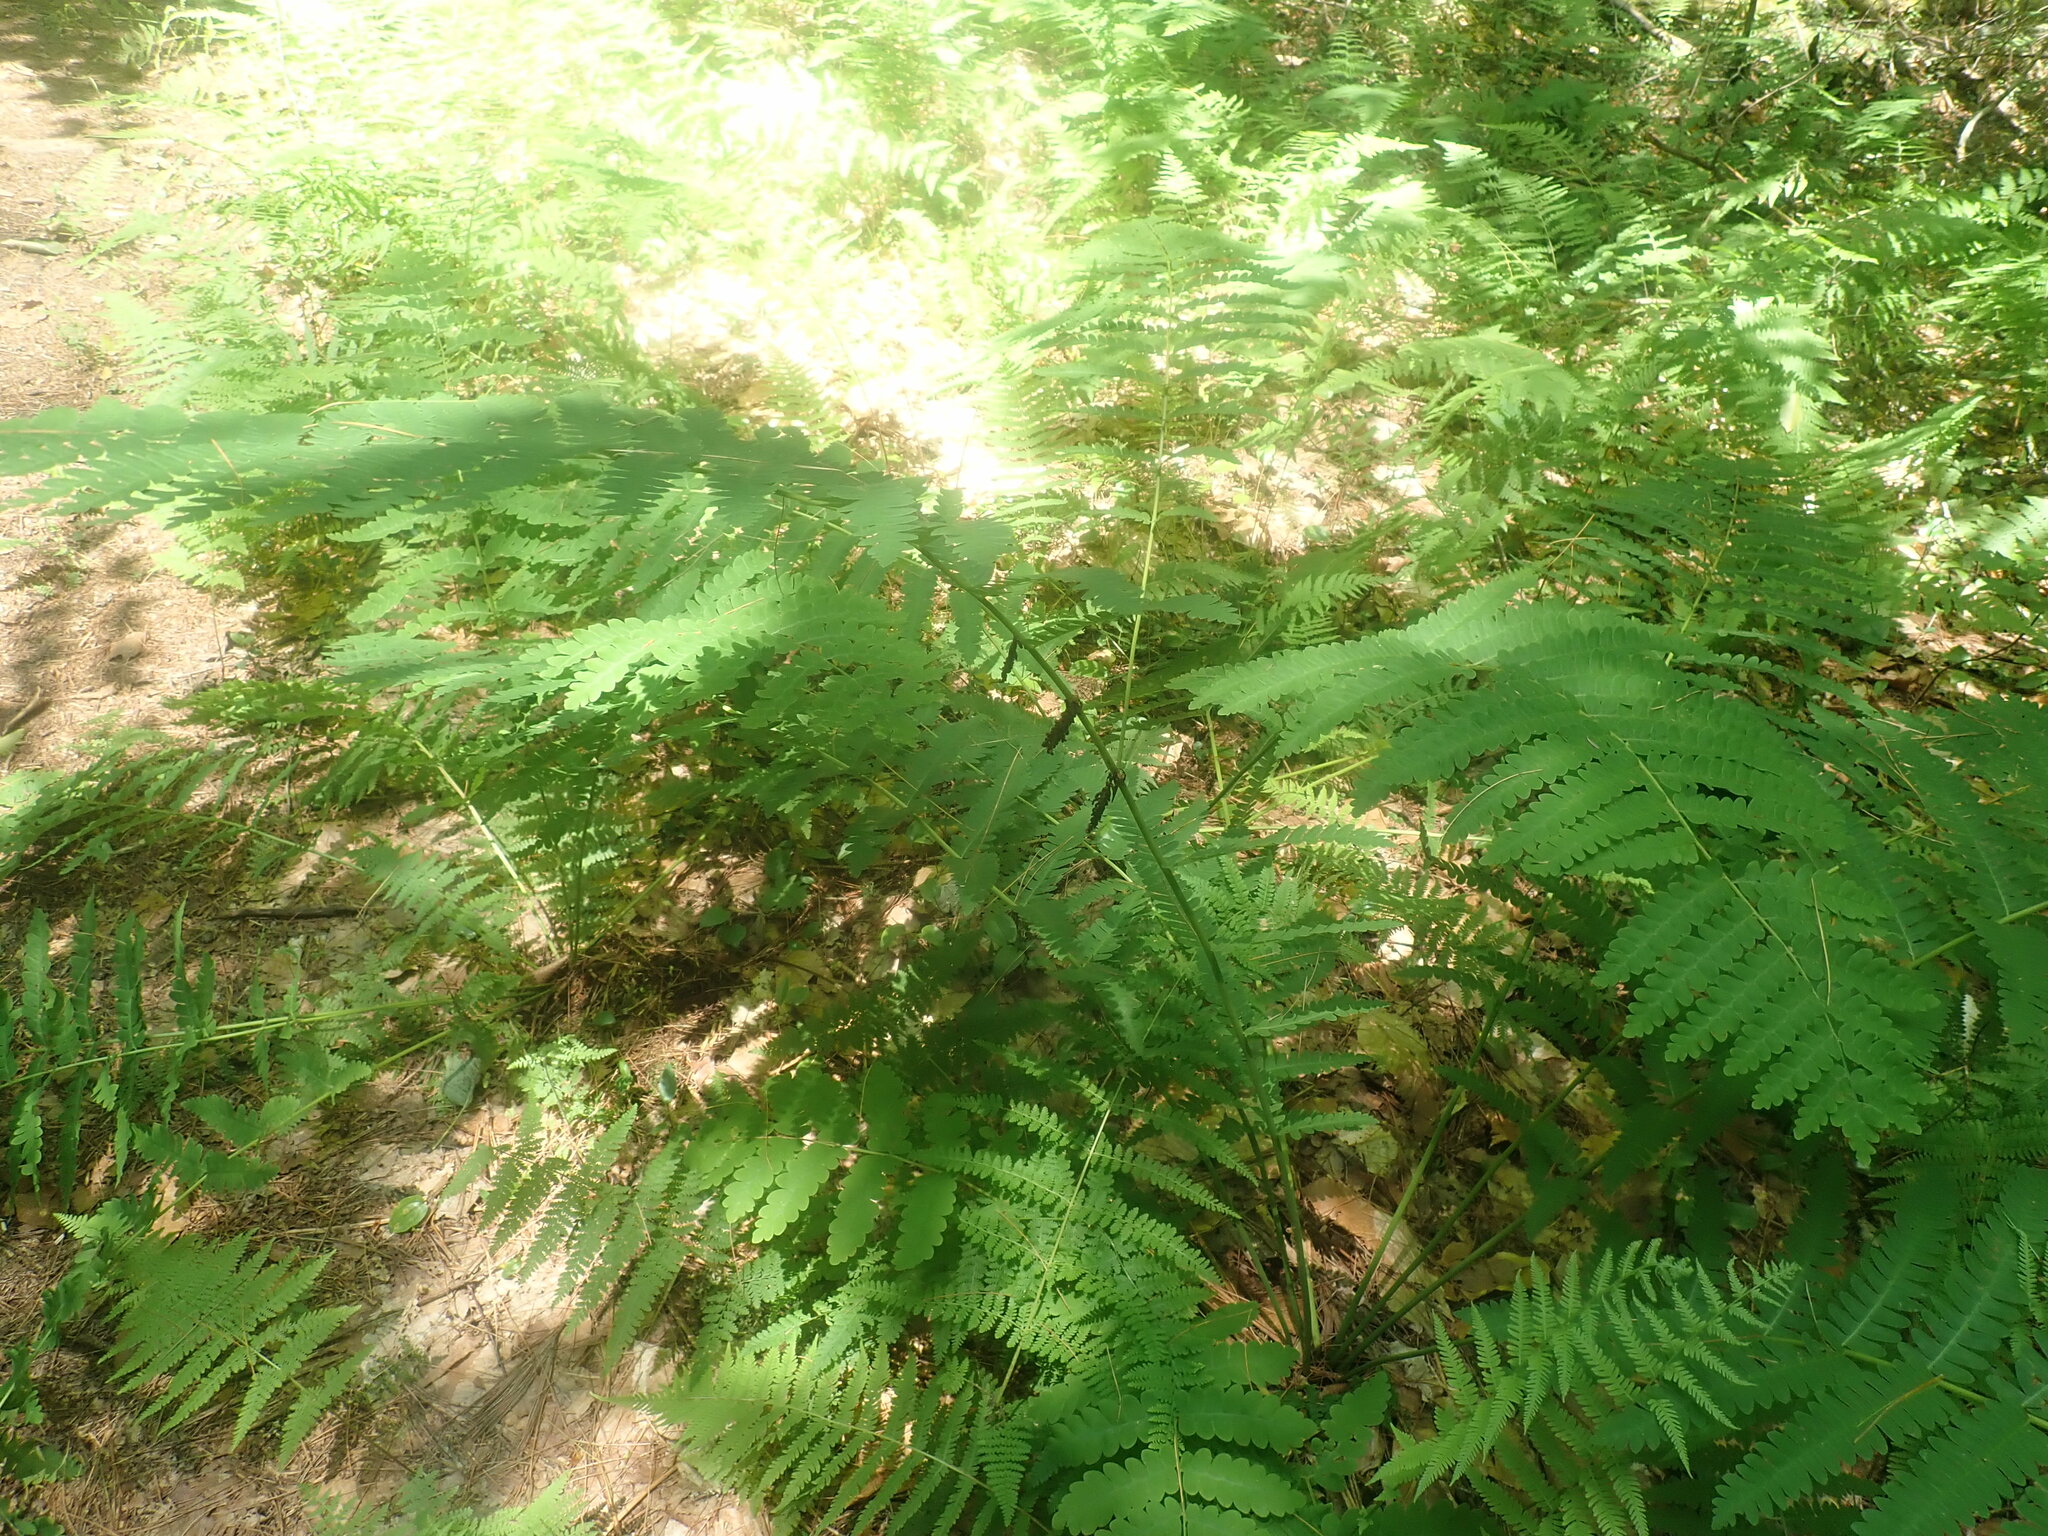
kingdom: Plantae
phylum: Tracheophyta
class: Polypodiopsida
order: Osmundales
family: Osmundaceae
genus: Claytosmunda
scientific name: Claytosmunda claytoniana
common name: Clayton's fern
